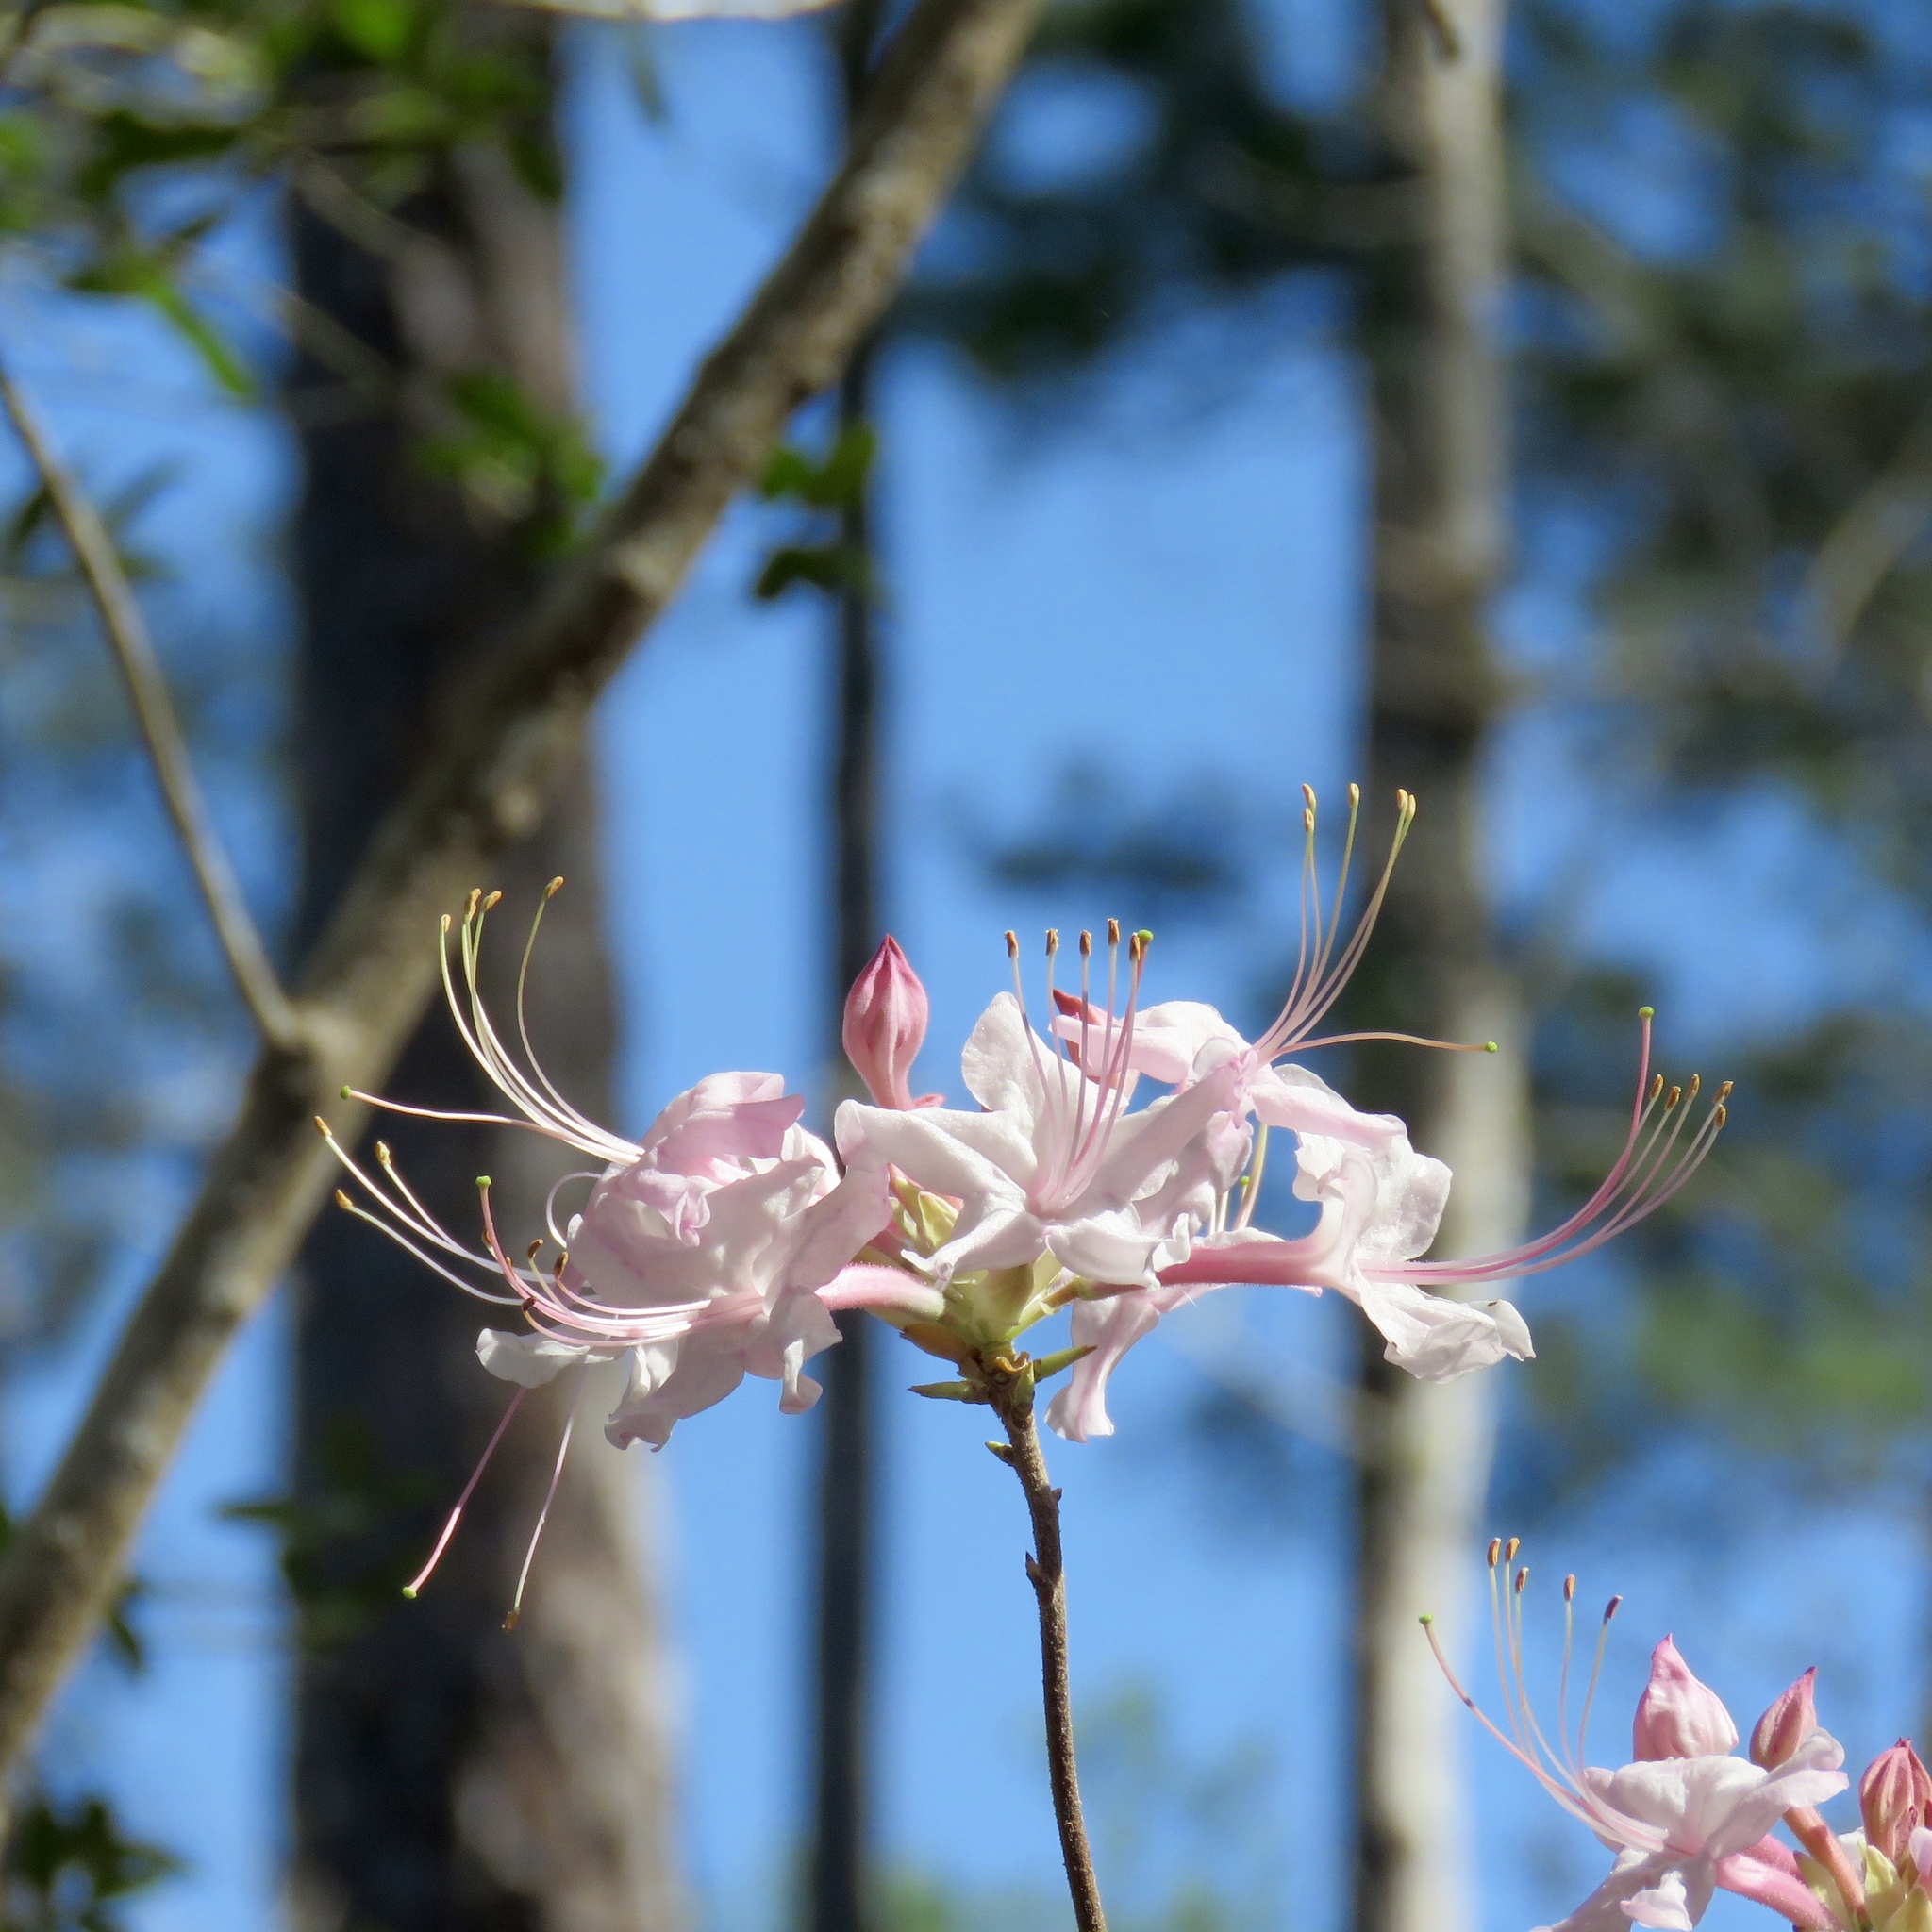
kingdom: Plantae
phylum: Tracheophyta
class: Magnoliopsida
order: Ericales
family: Ericaceae
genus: Rhododendron
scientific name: Rhododendron canescens
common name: Mountain azalea
